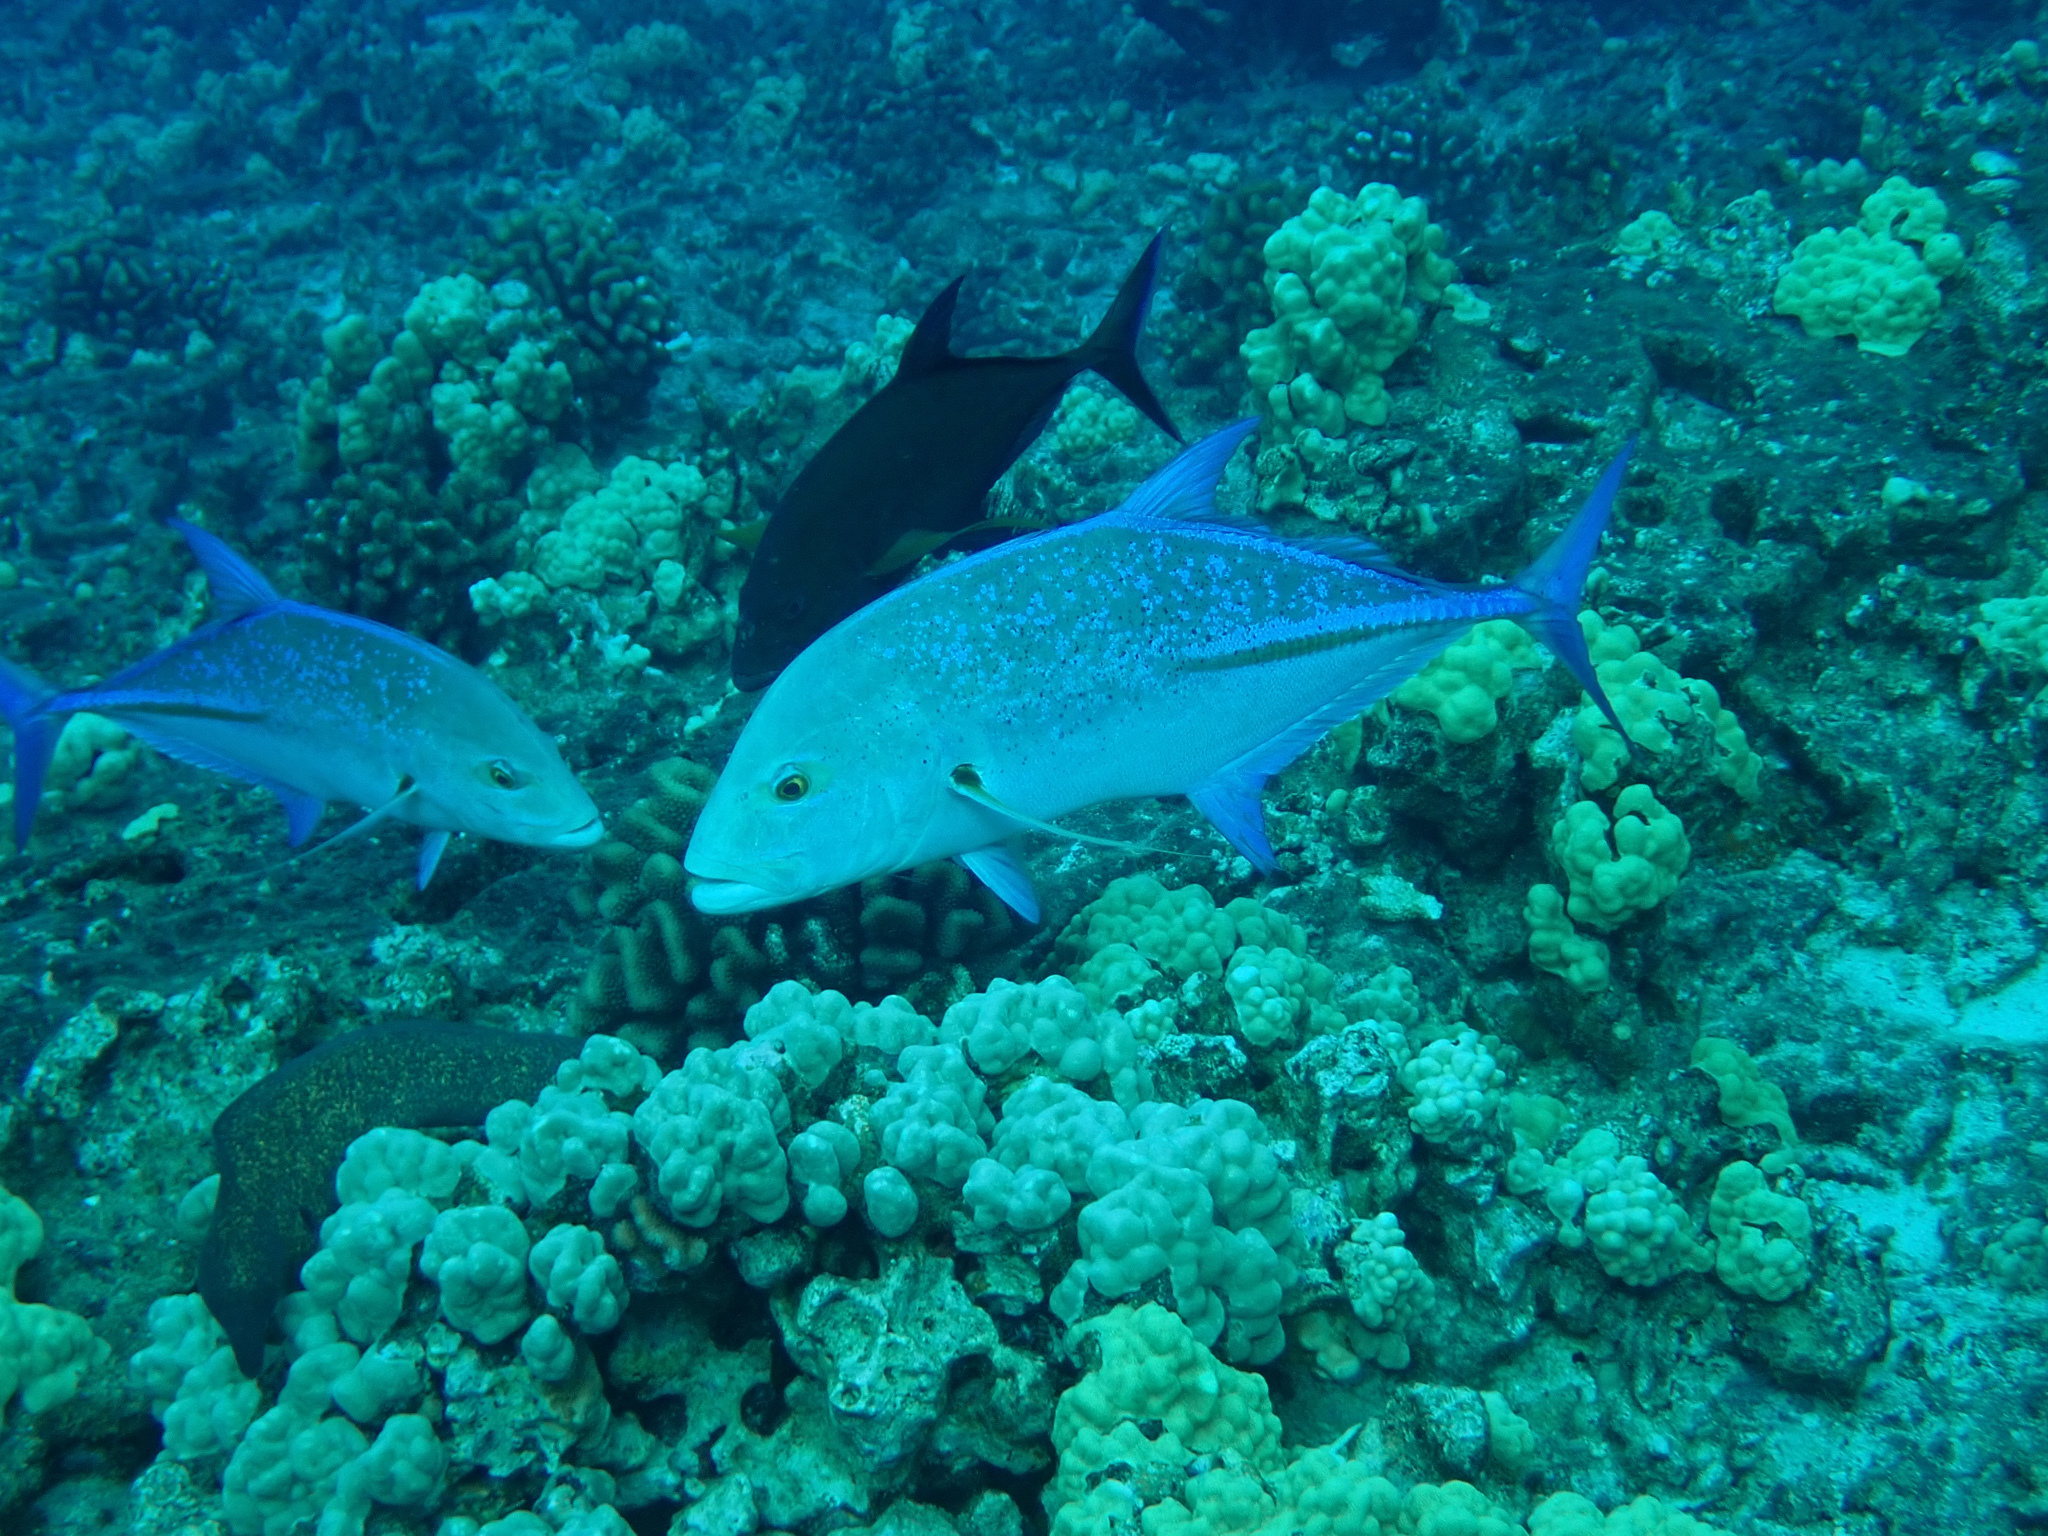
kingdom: Animalia
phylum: Chordata
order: Perciformes
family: Carangidae
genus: Caranx
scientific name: Caranx melampygus
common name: Bluefin trevally
